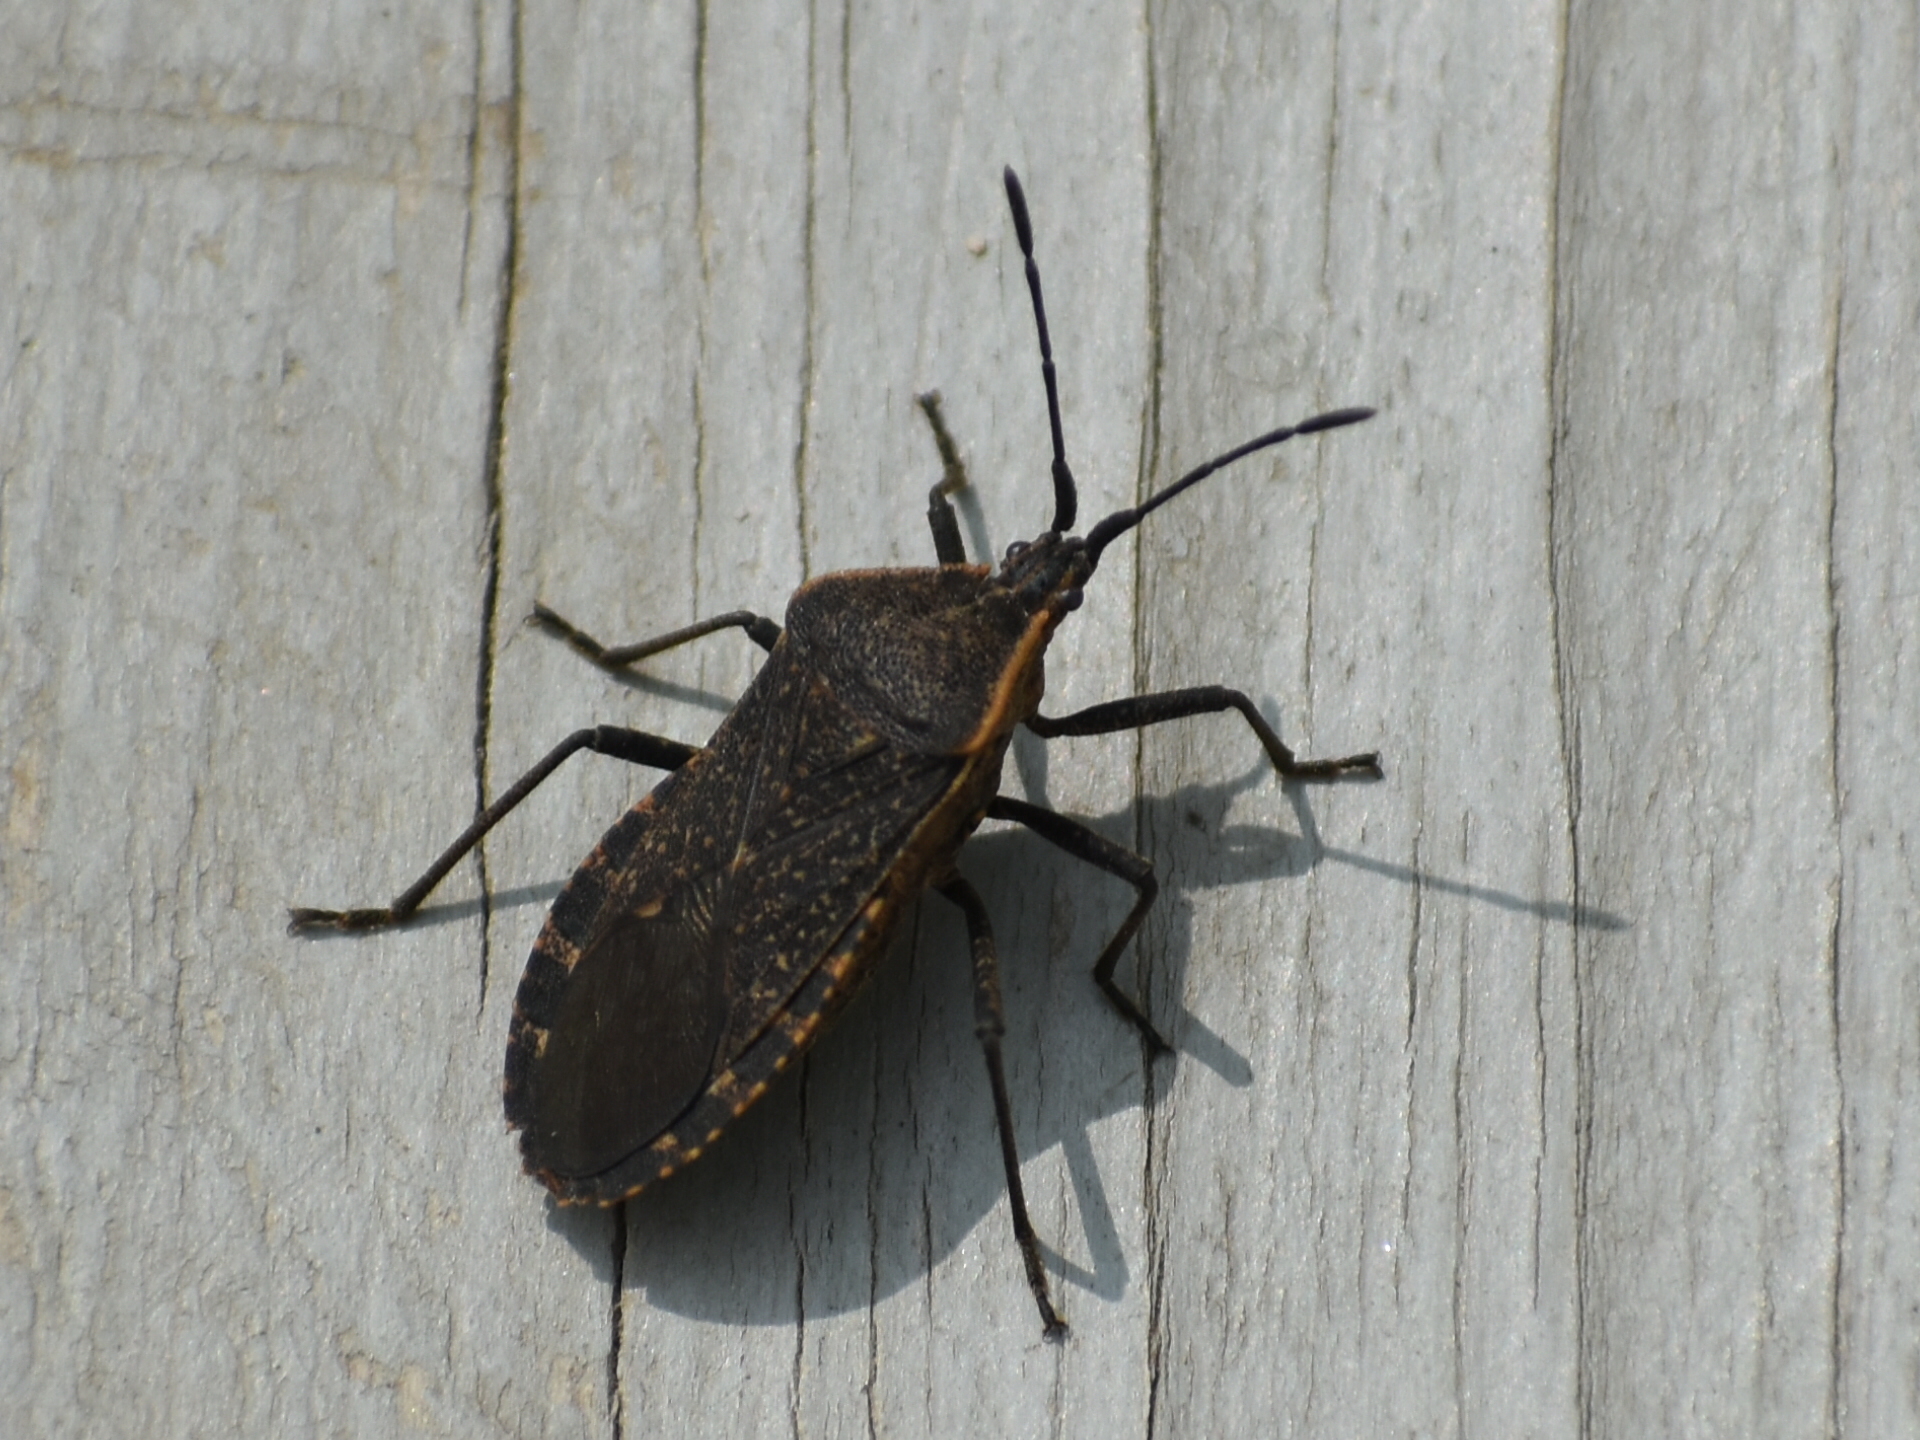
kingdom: Animalia
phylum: Arthropoda
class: Insecta
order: Hemiptera
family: Coreidae
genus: Anasa
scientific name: Anasa tristis
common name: Squash bug
